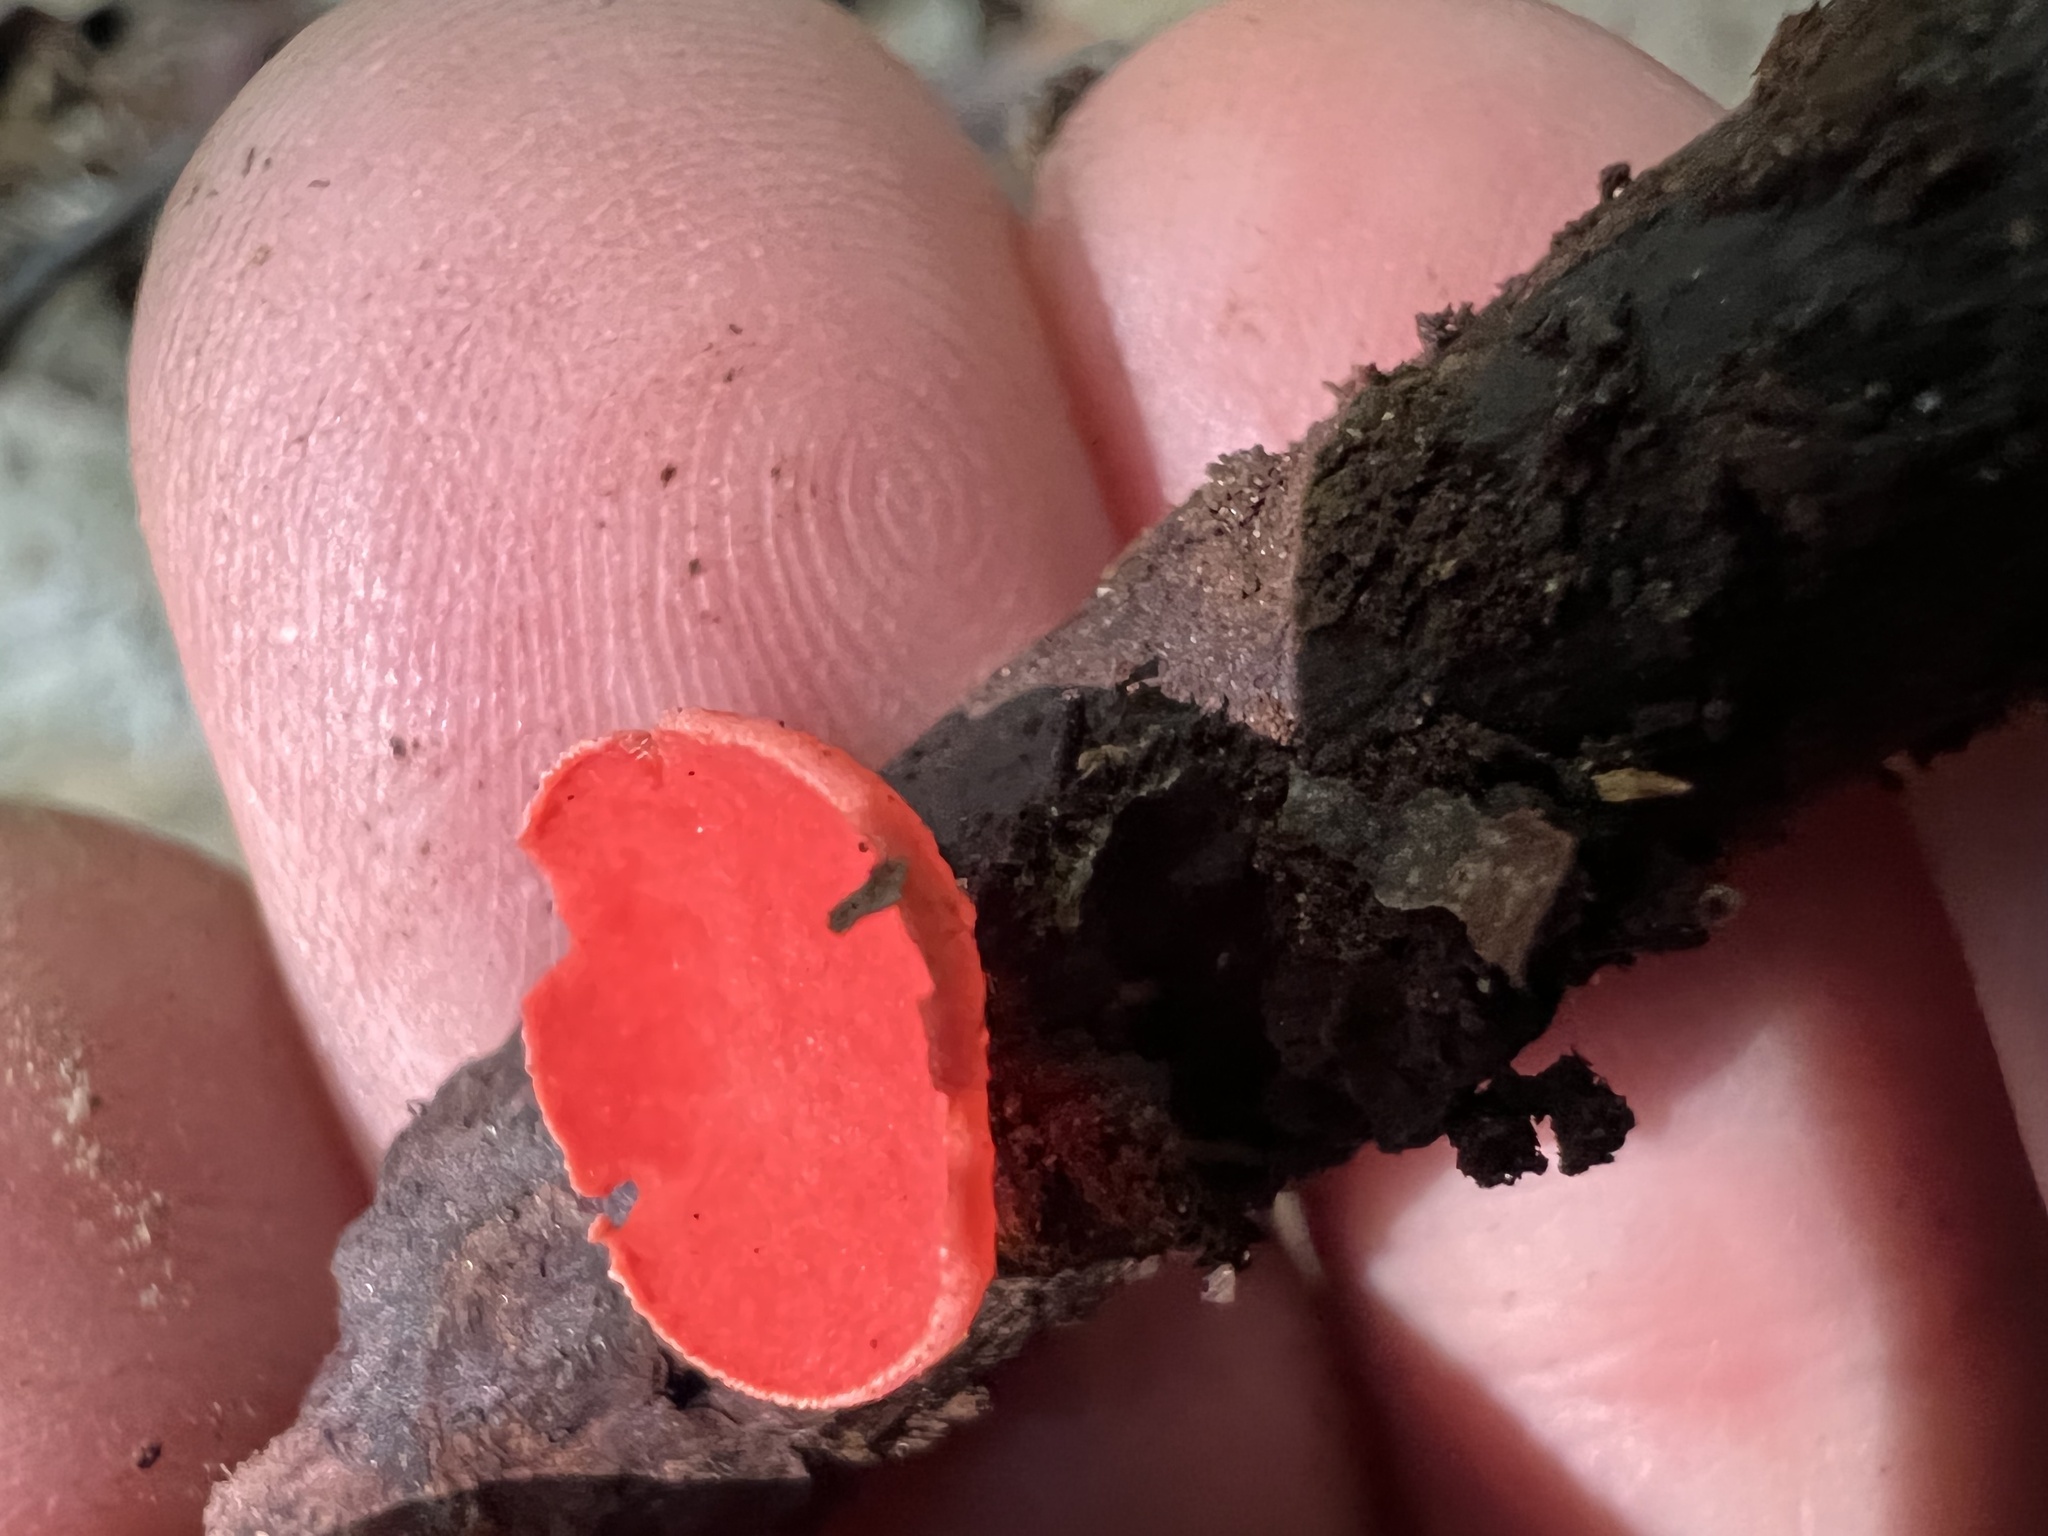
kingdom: Fungi
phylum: Ascomycota
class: Pezizomycetes
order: Pezizales
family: Sarcoscyphaceae
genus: Sarcoscypha
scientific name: Sarcoscypha occidentalis
